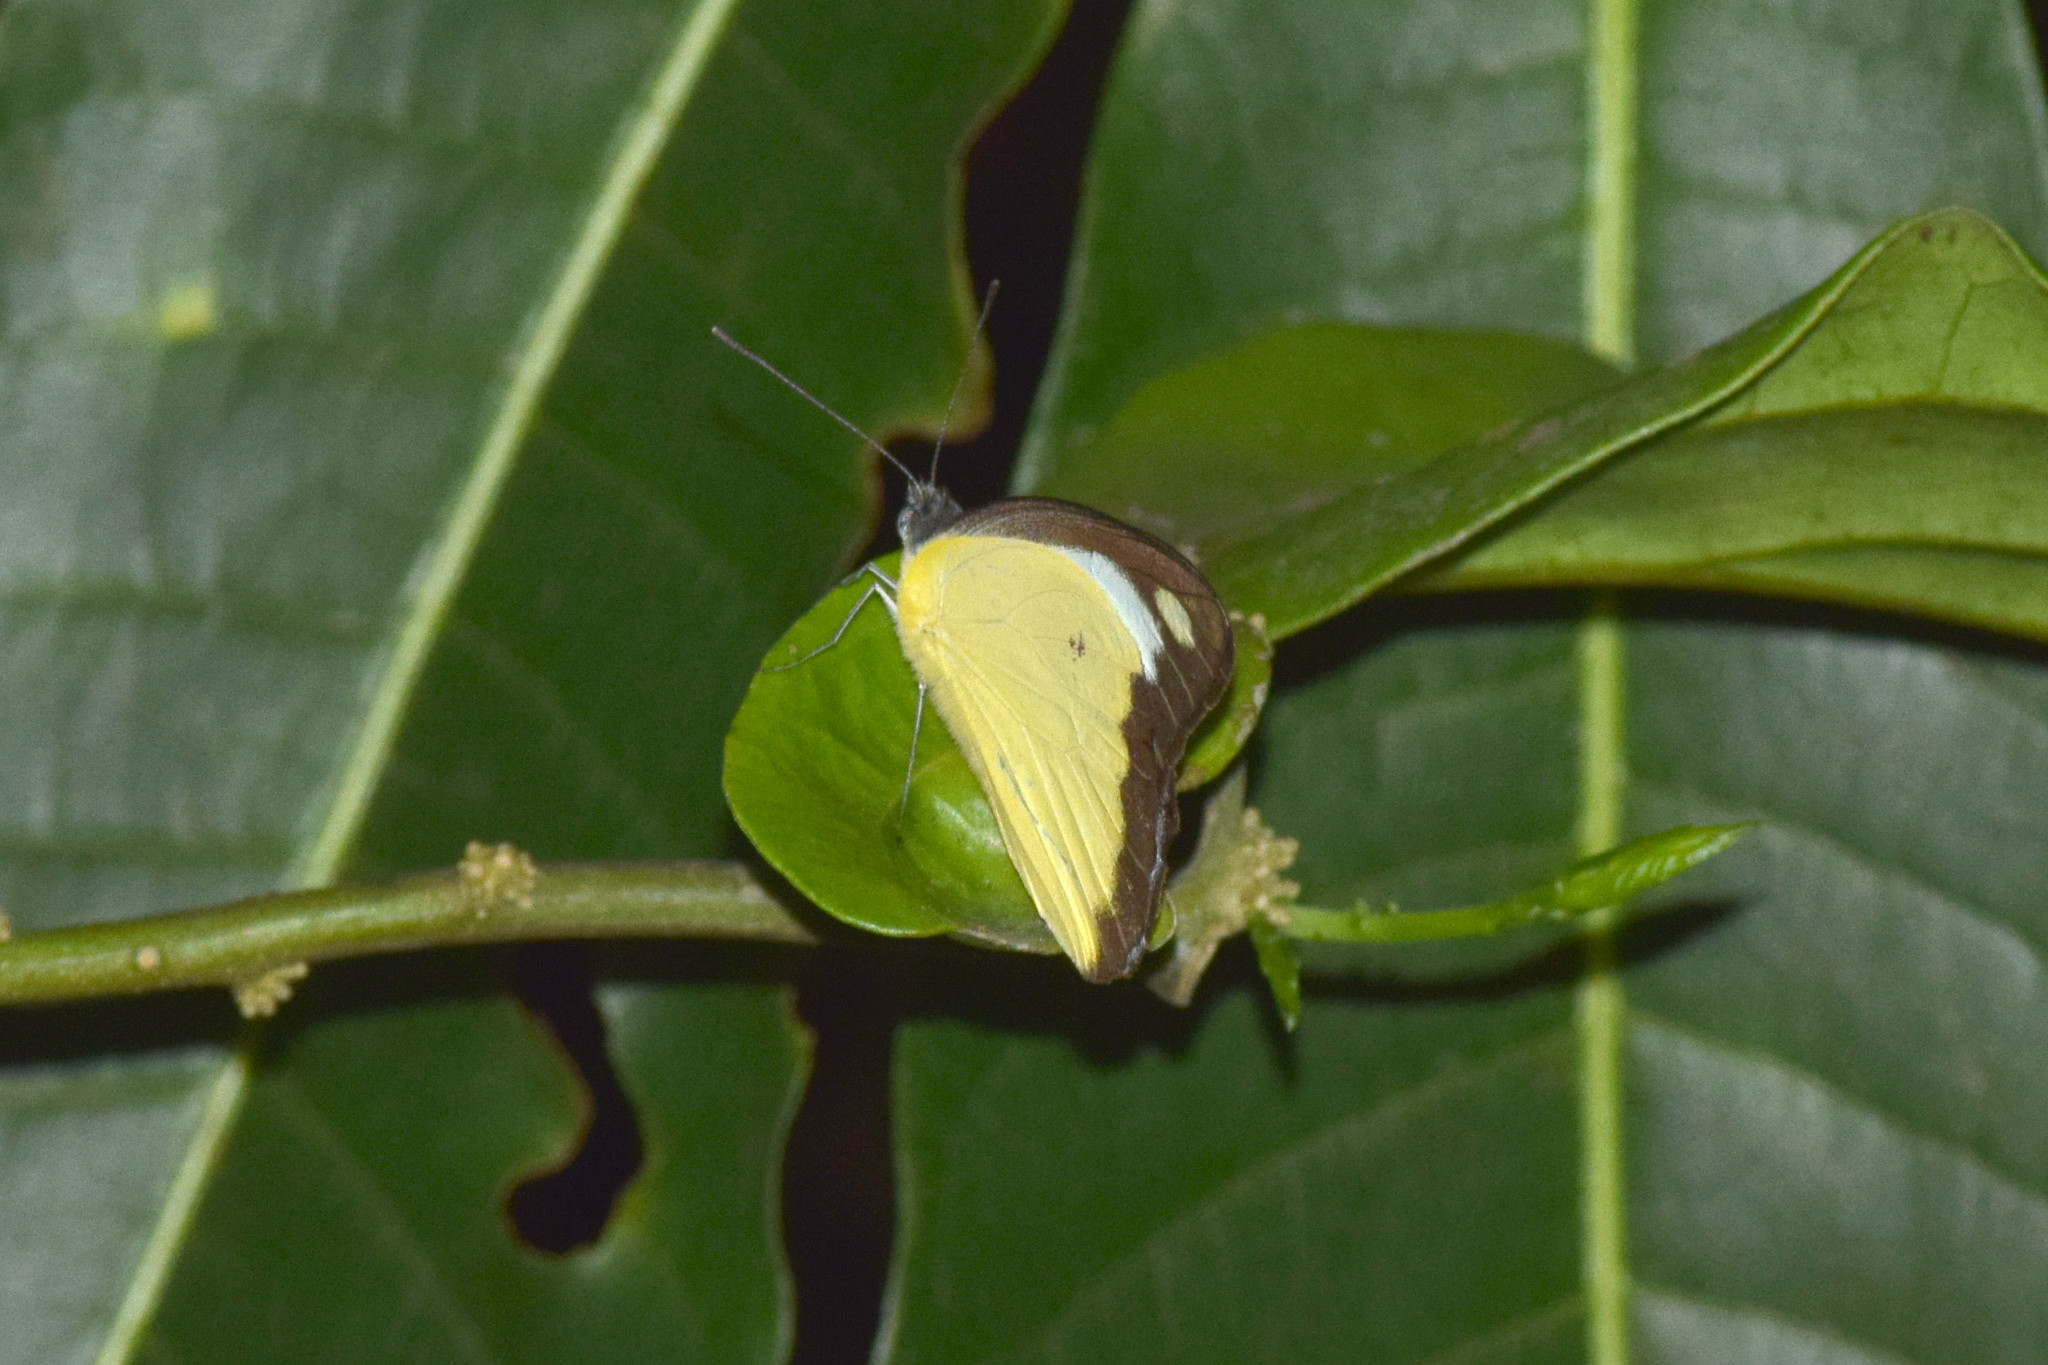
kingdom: Animalia
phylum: Arthropoda
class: Insecta
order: Lepidoptera
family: Pieridae
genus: Appias
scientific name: Appias lyncida
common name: Chocolate albatross
